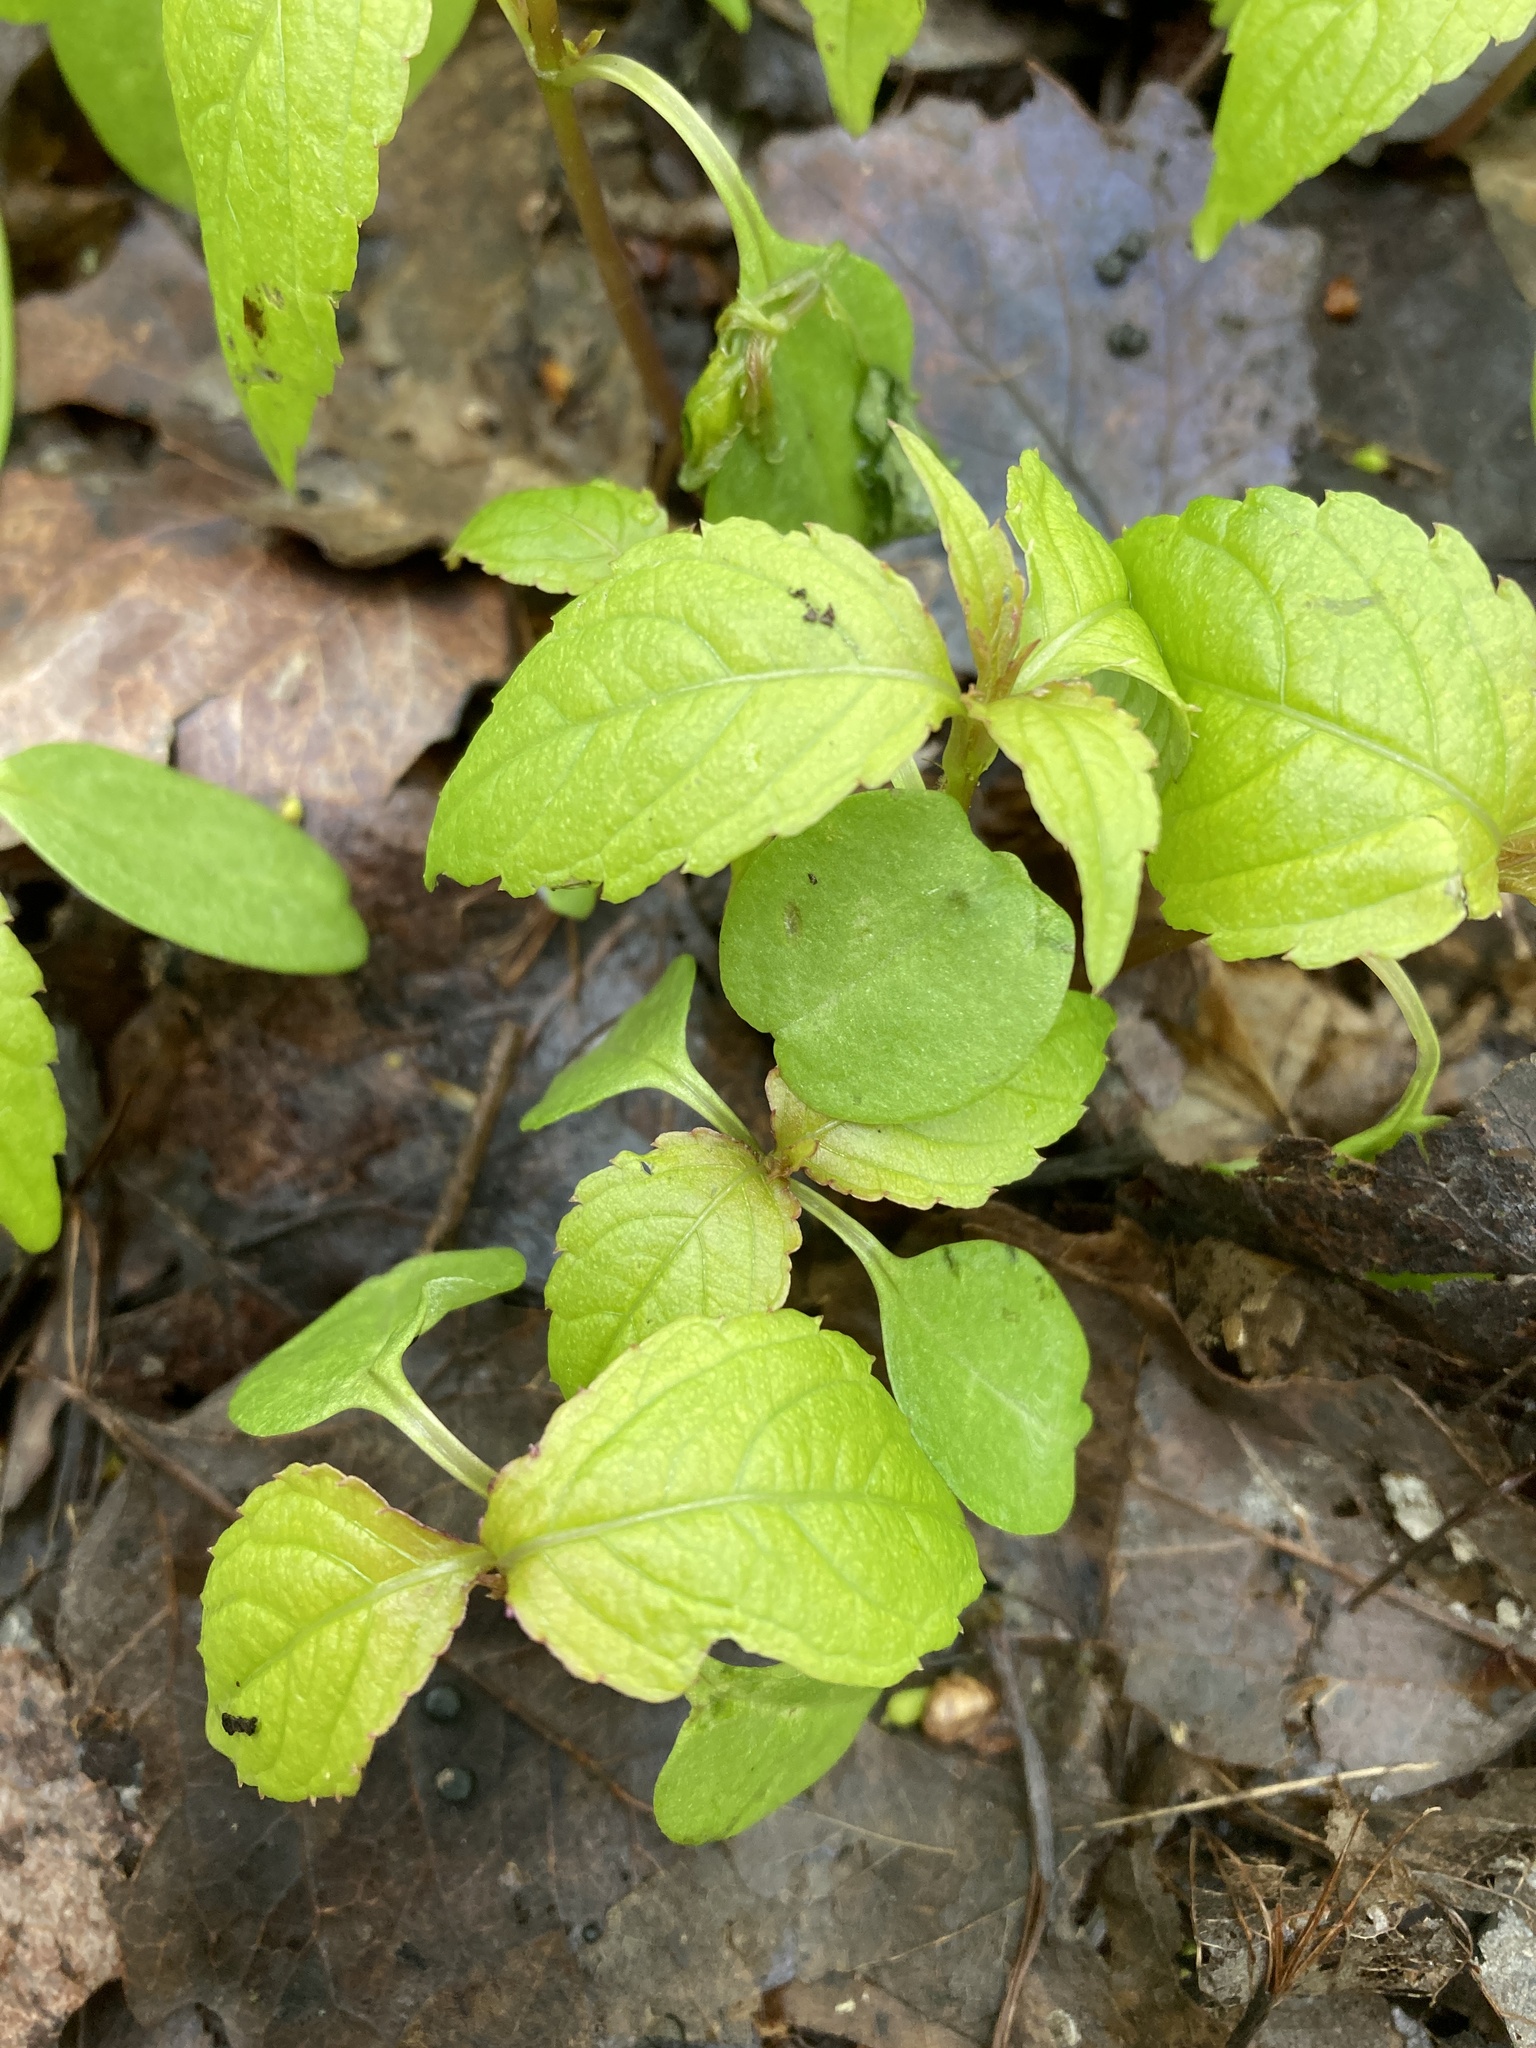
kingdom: Plantae
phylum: Tracheophyta
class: Magnoliopsida
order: Ericales
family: Balsaminaceae
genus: Impatiens
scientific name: Impatiens parviflora
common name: Small balsam
